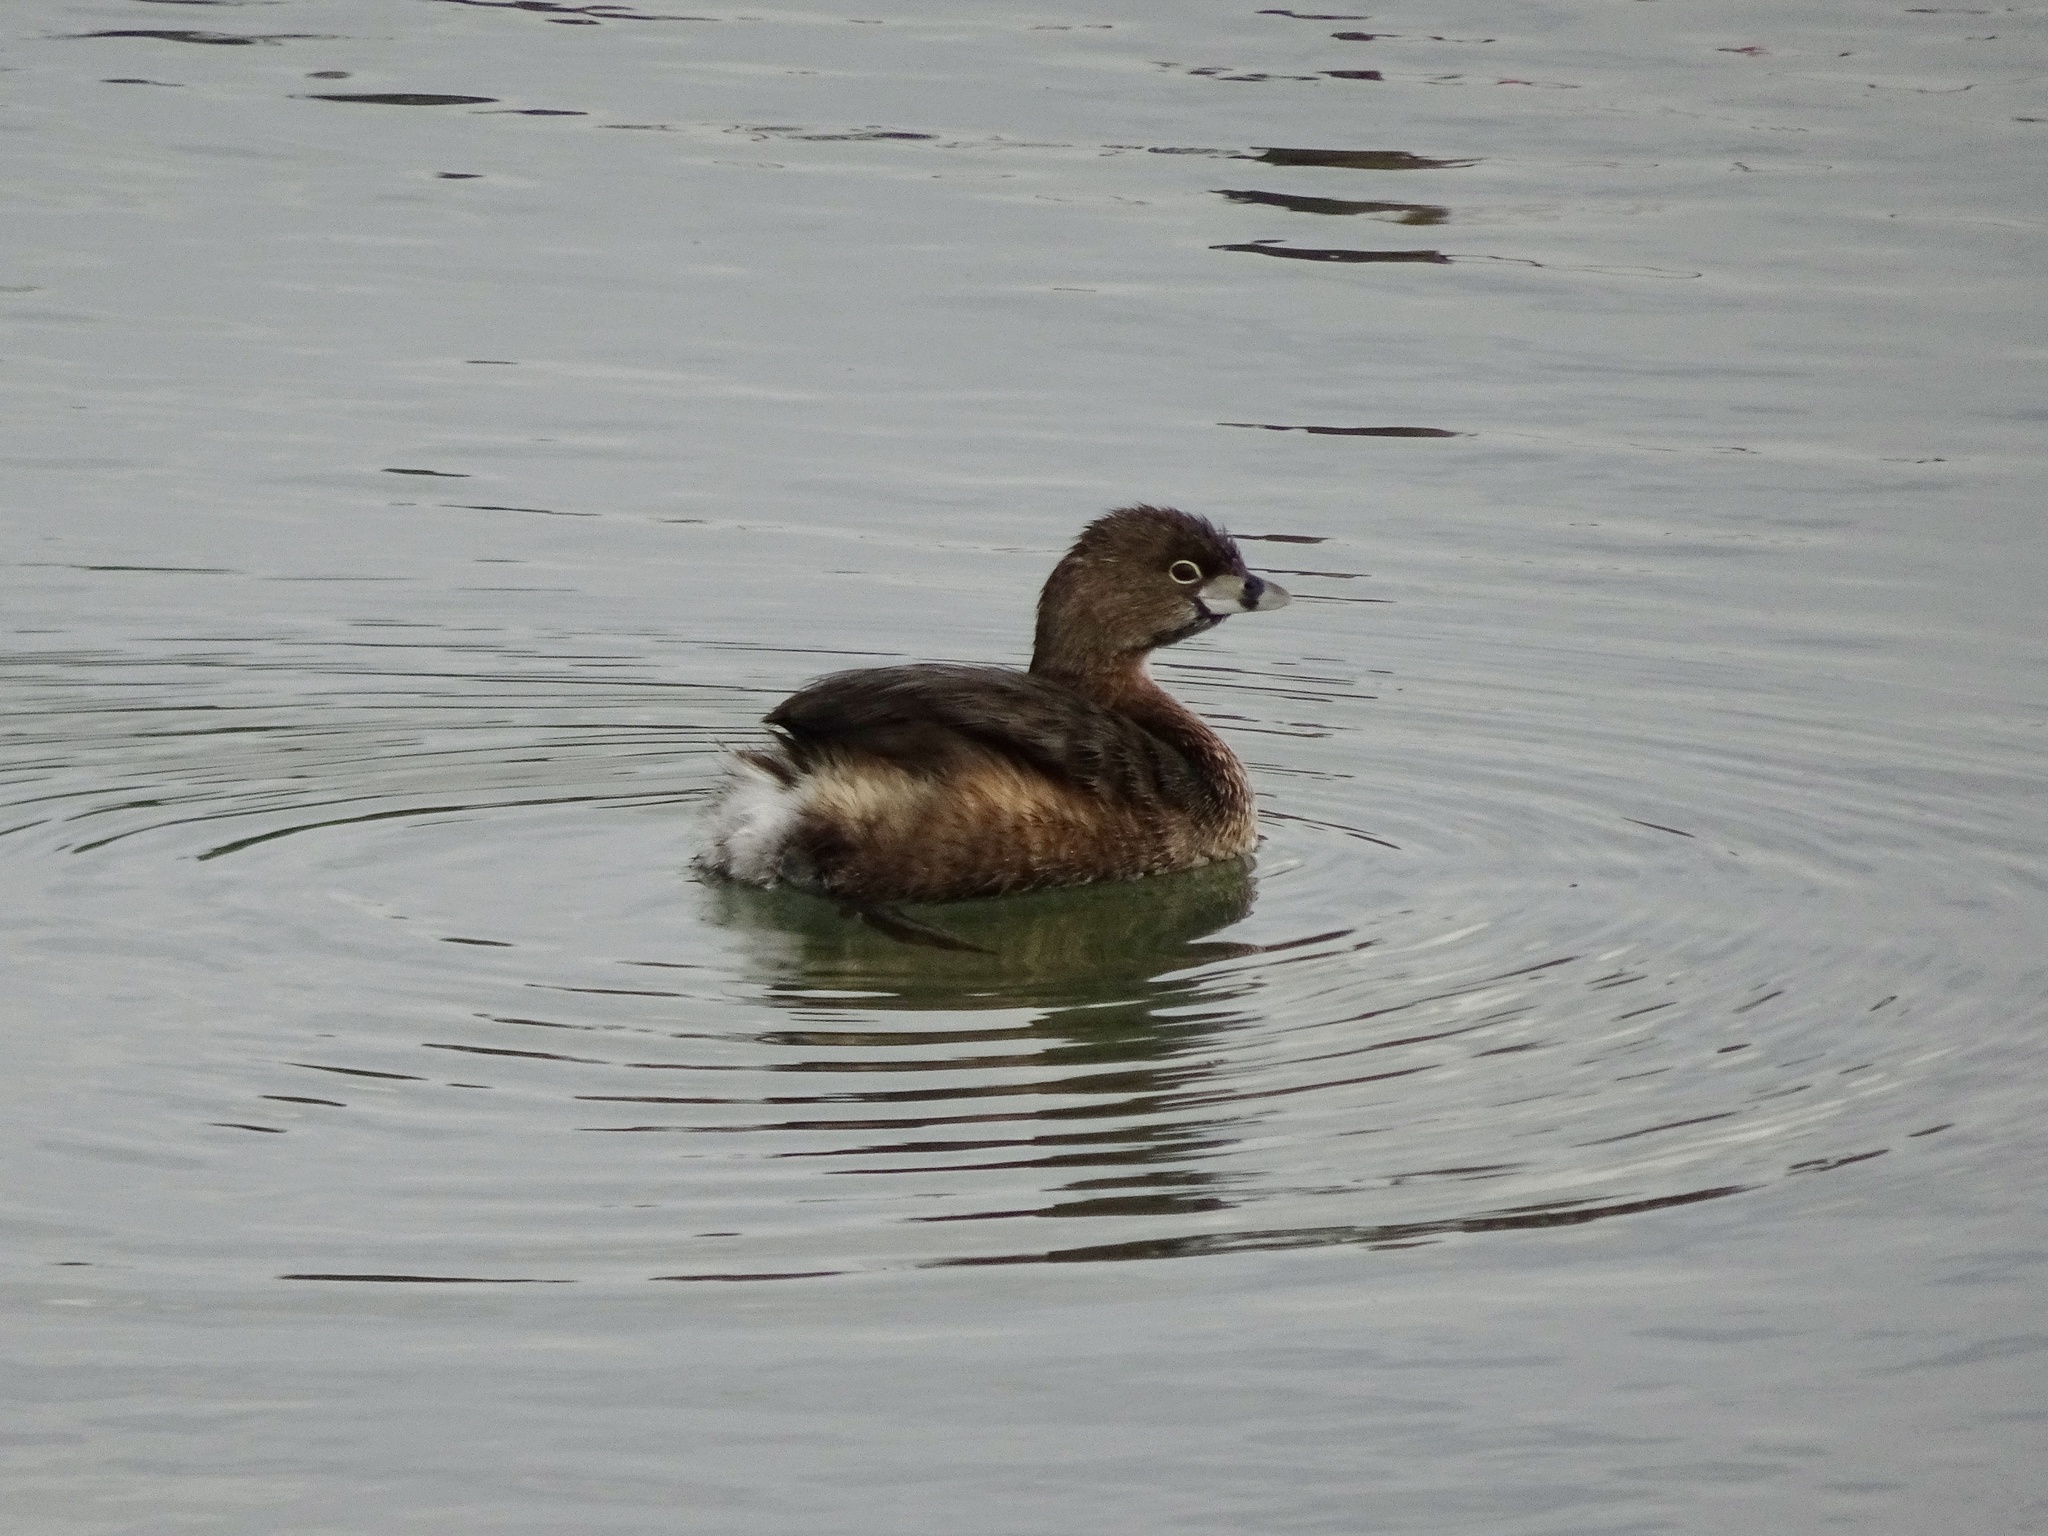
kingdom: Animalia
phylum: Chordata
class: Aves
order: Podicipediformes
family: Podicipedidae
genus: Podilymbus
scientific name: Podilymbus podiceps
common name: Pied-billed grebe
